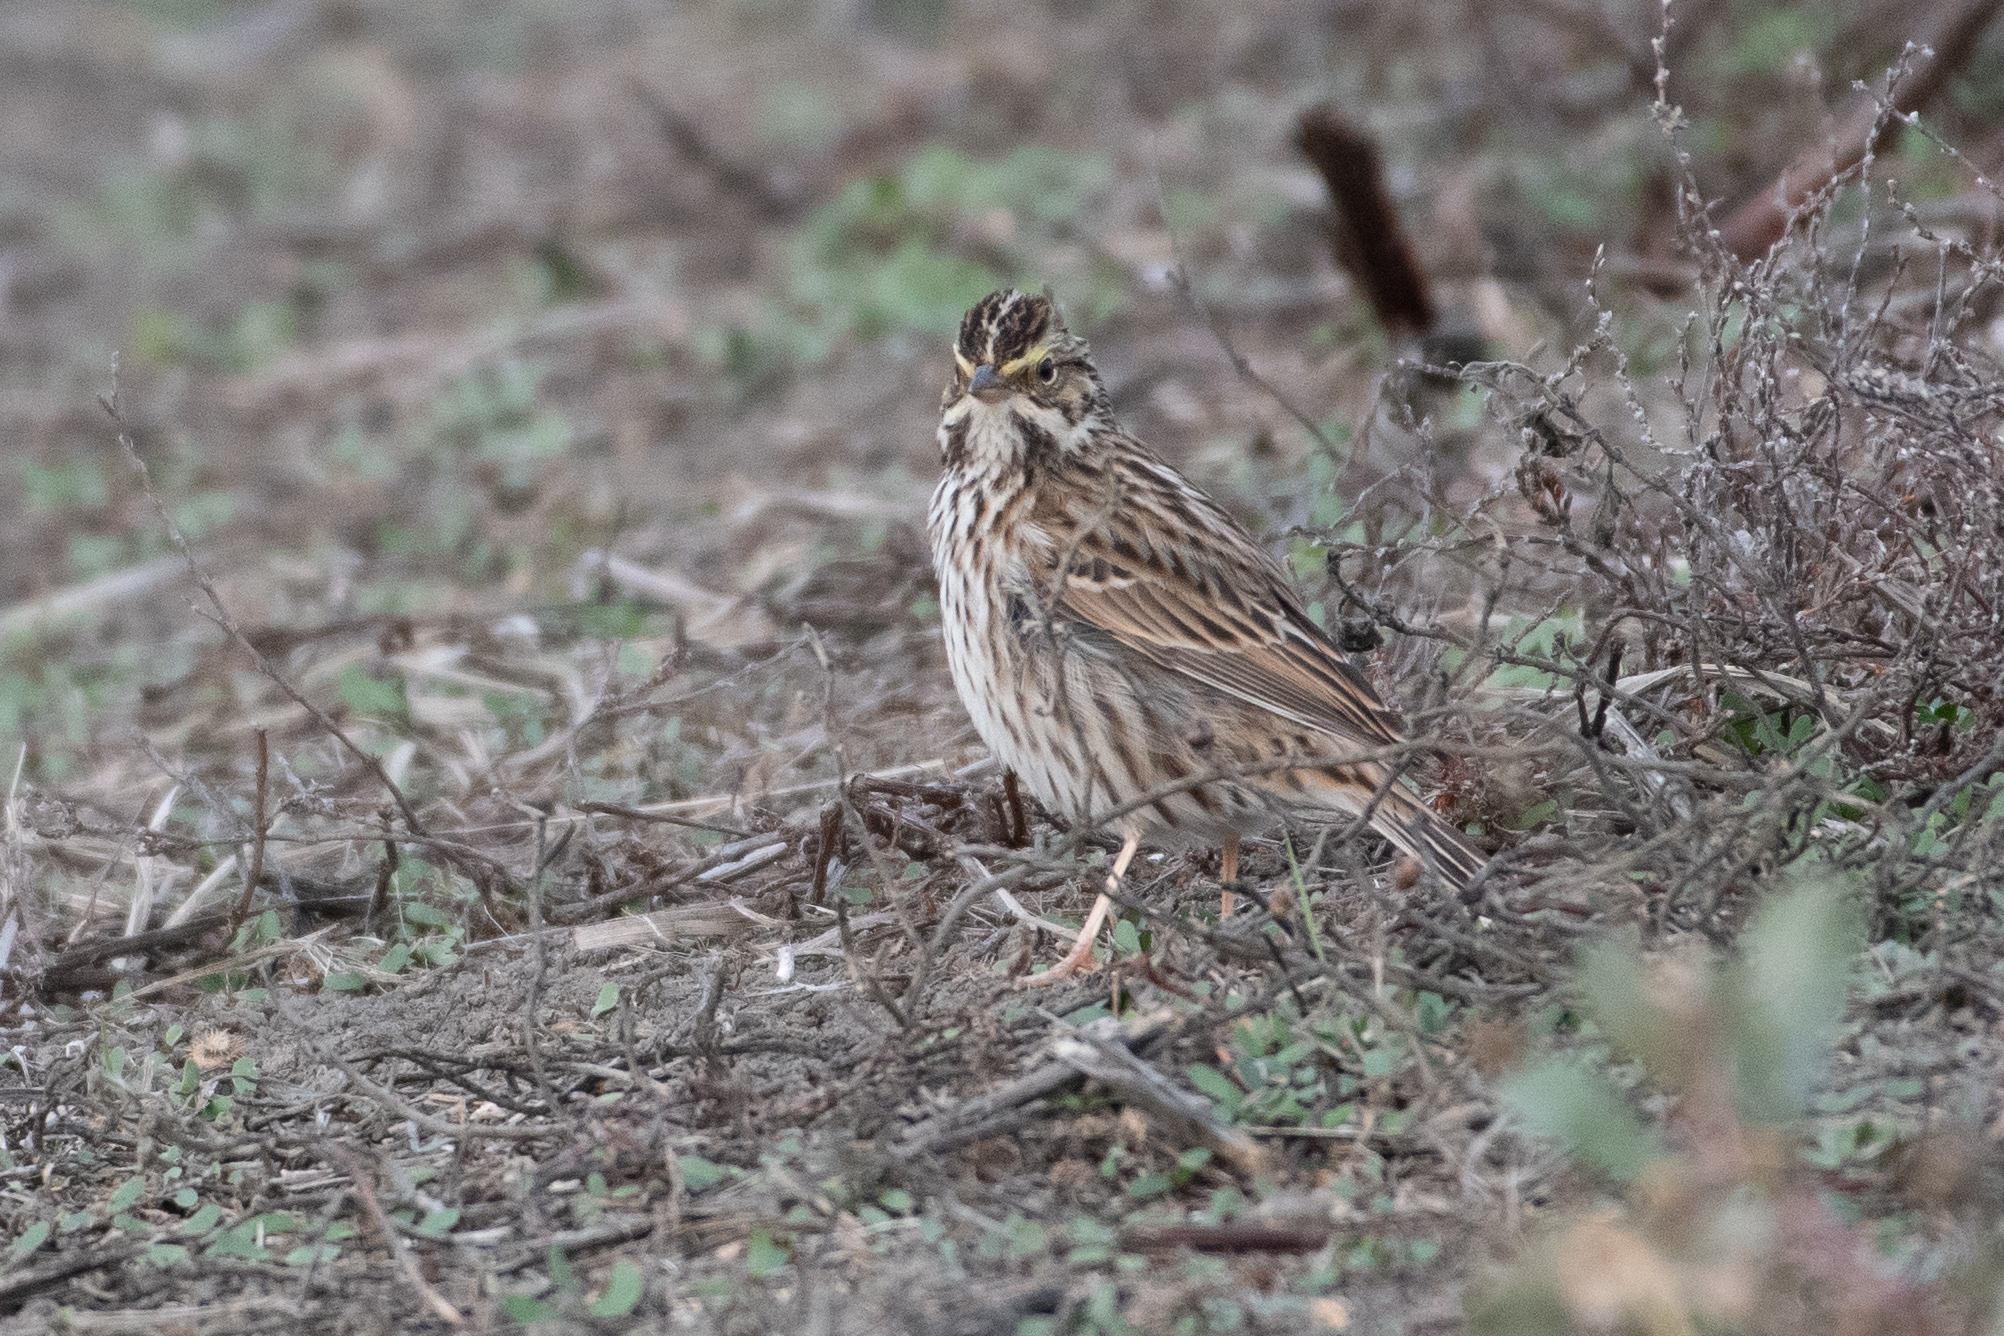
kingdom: Animalia
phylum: Chordata
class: Aves
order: Passeriformes
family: Passerellidae
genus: Passerculus
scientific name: Passerculus sandwichensis
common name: Savannah sparrow
